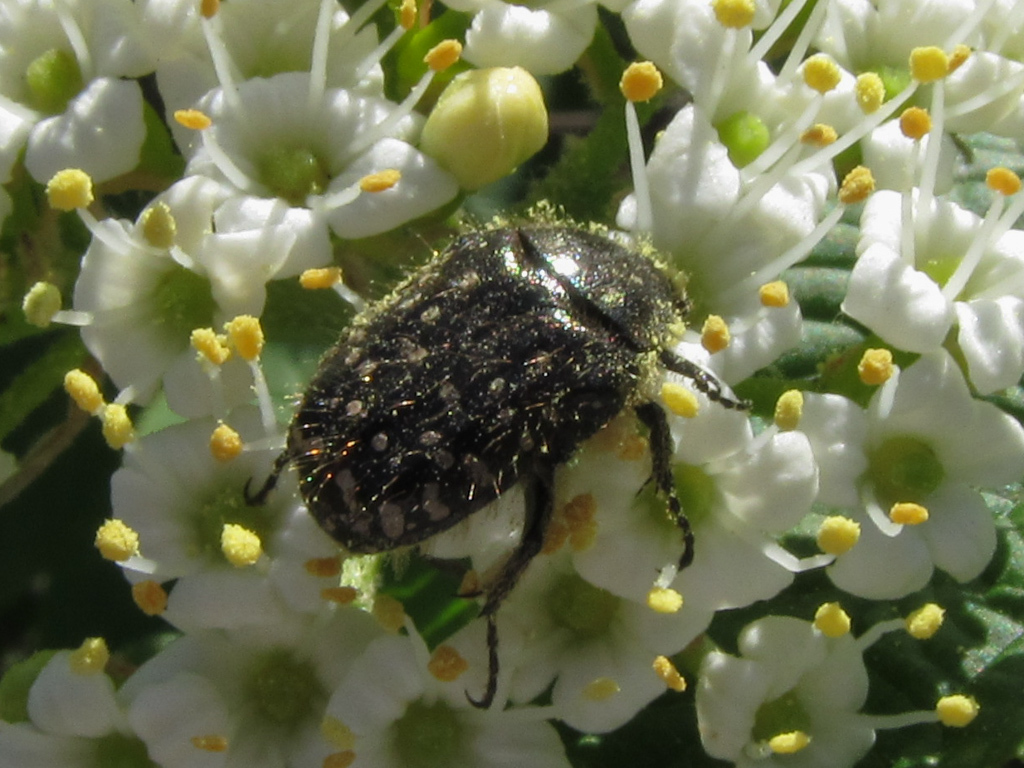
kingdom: Animalia
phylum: Arthropoda
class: Insecta
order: Coleoptera
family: Scarabaeidae
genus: Oxythyrea
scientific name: Oxythyrea funesta
